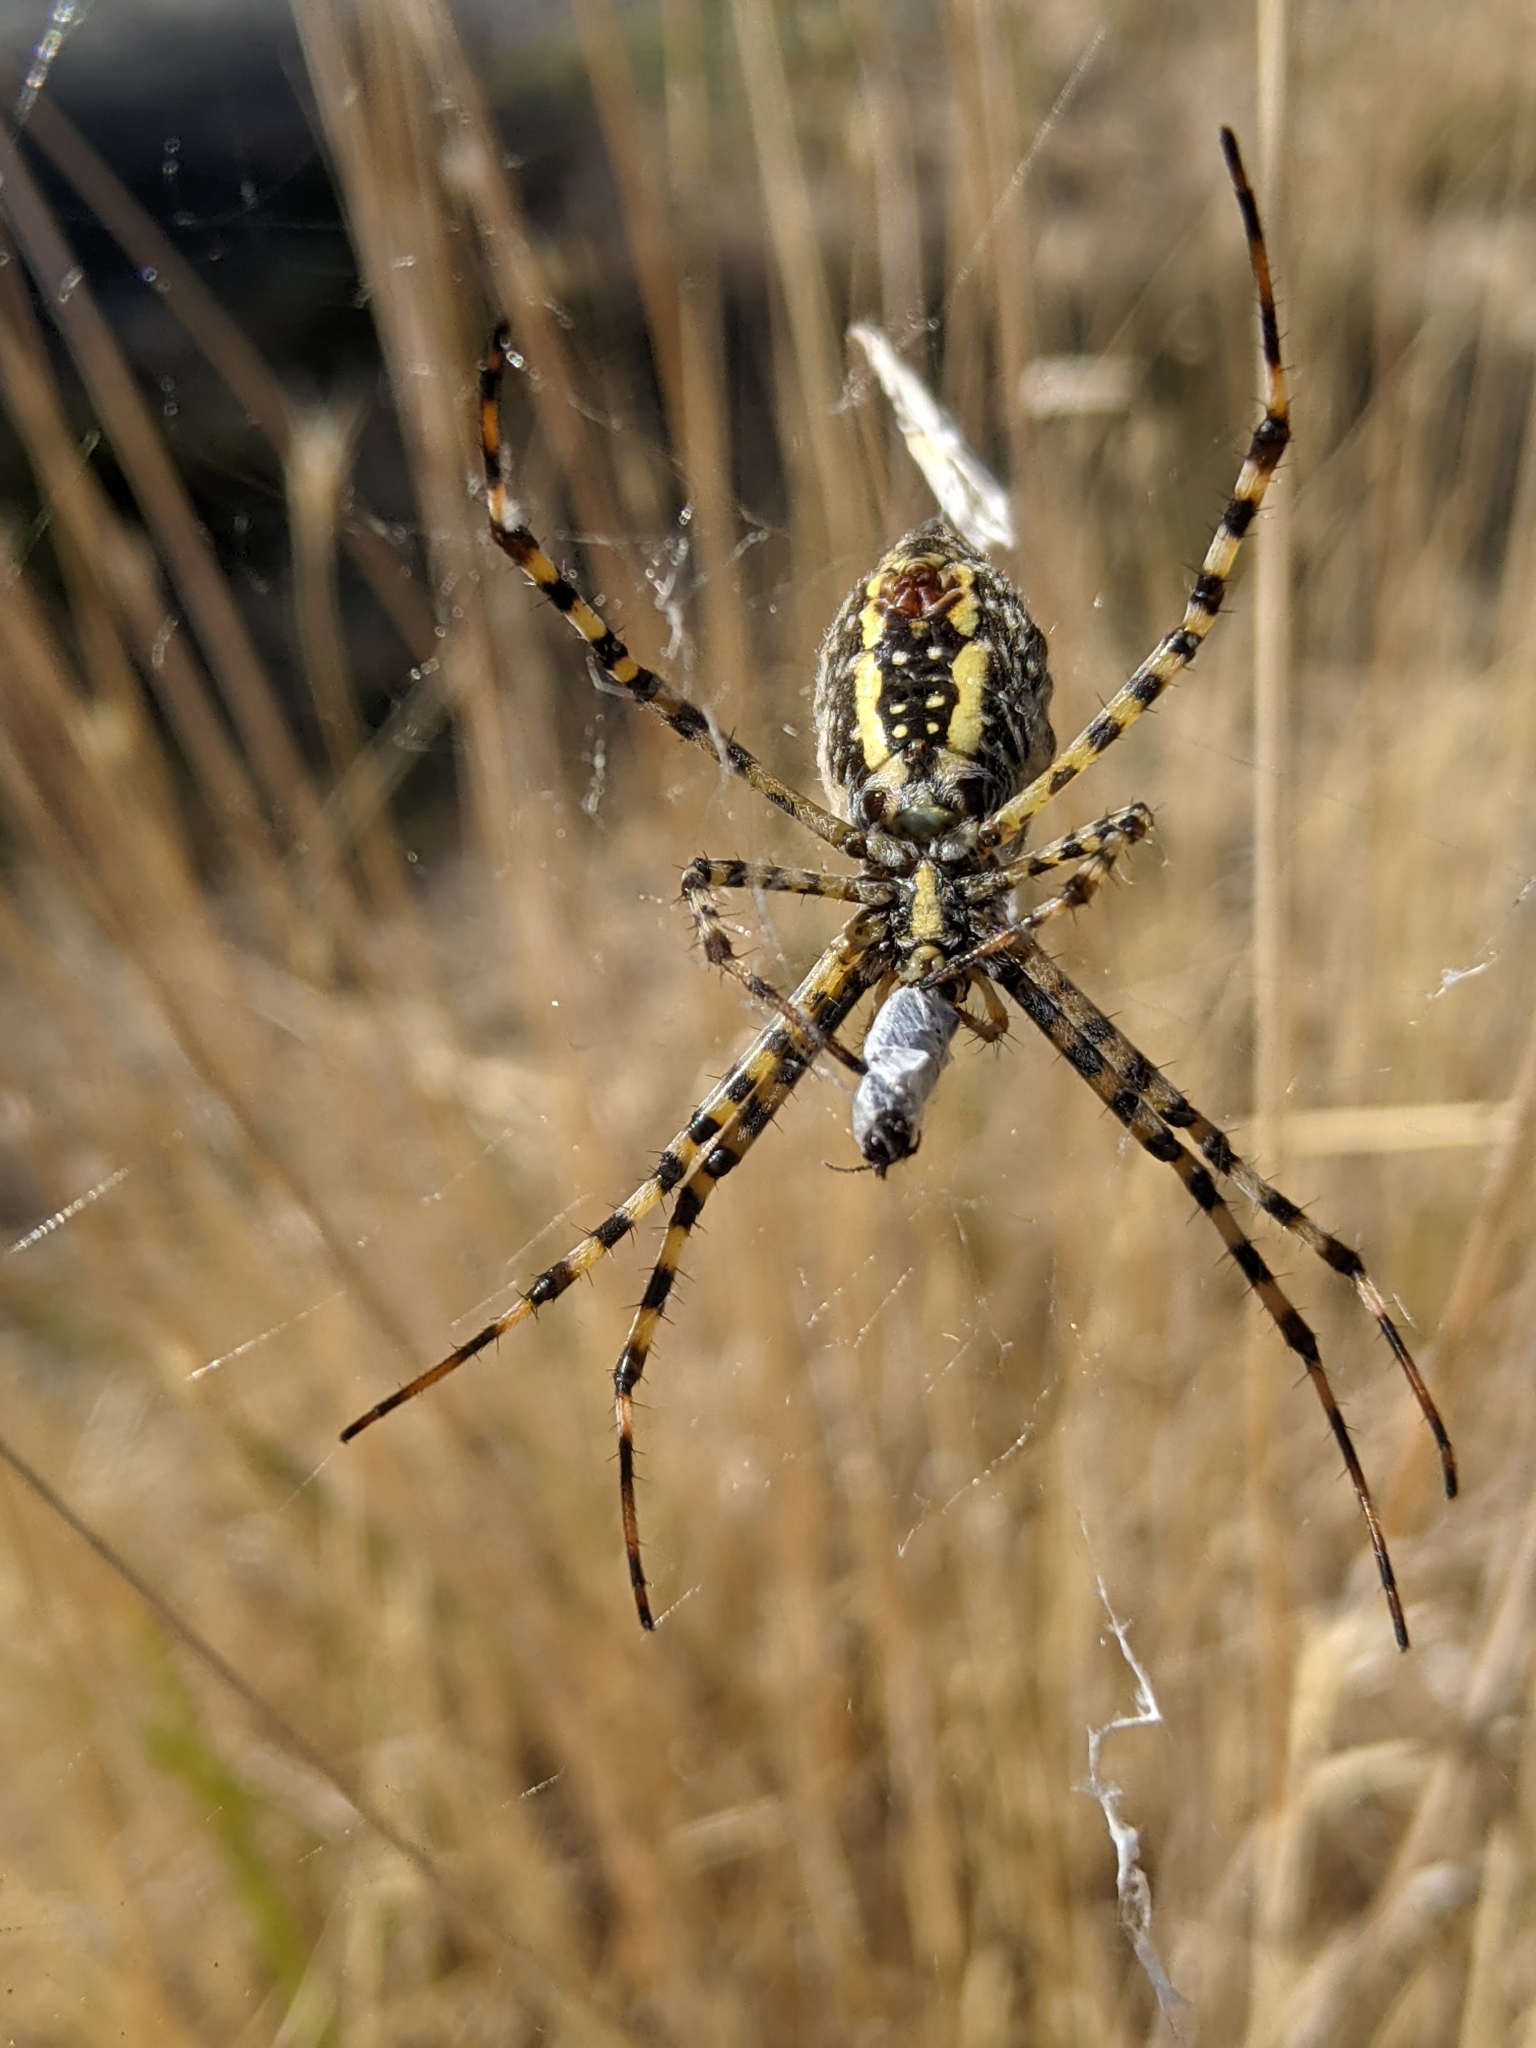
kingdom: Animalia
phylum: Arthropoda
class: Arachnida
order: Araneae
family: Araneidae
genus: Argiope
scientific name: Argiope trifasciata
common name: Banded garden spider
